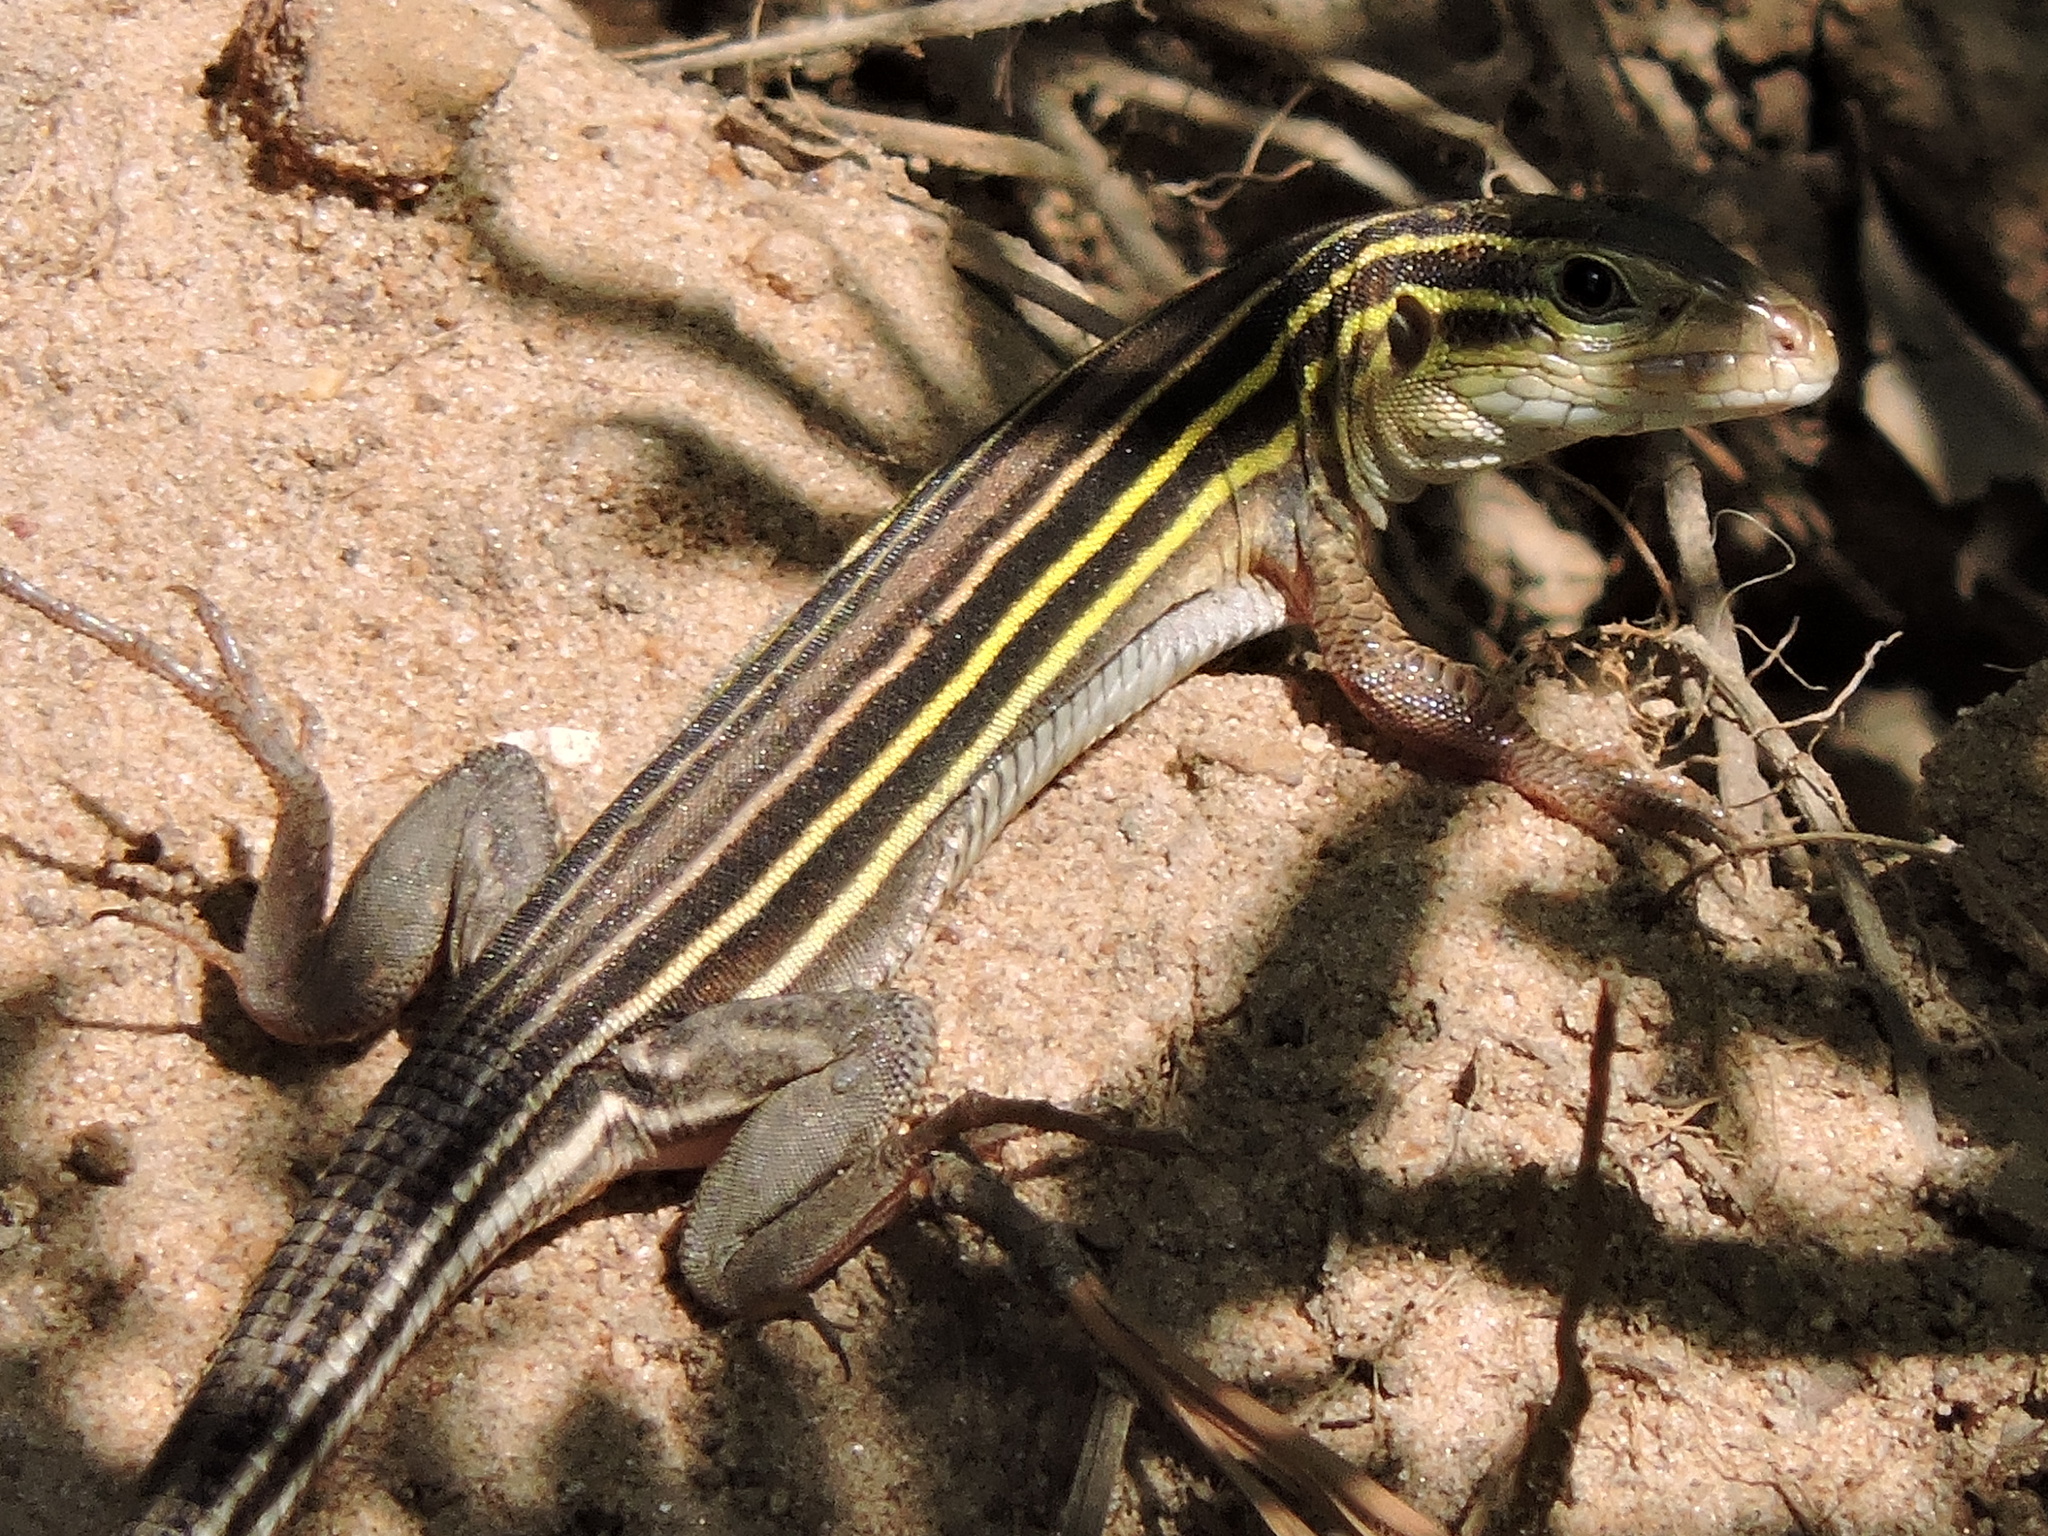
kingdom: Animalia
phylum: Chordata
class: Squamata
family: Teiidae
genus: Aspidoscelis
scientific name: Aspidoscelis sexlineatus
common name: Six-lined racerunner
